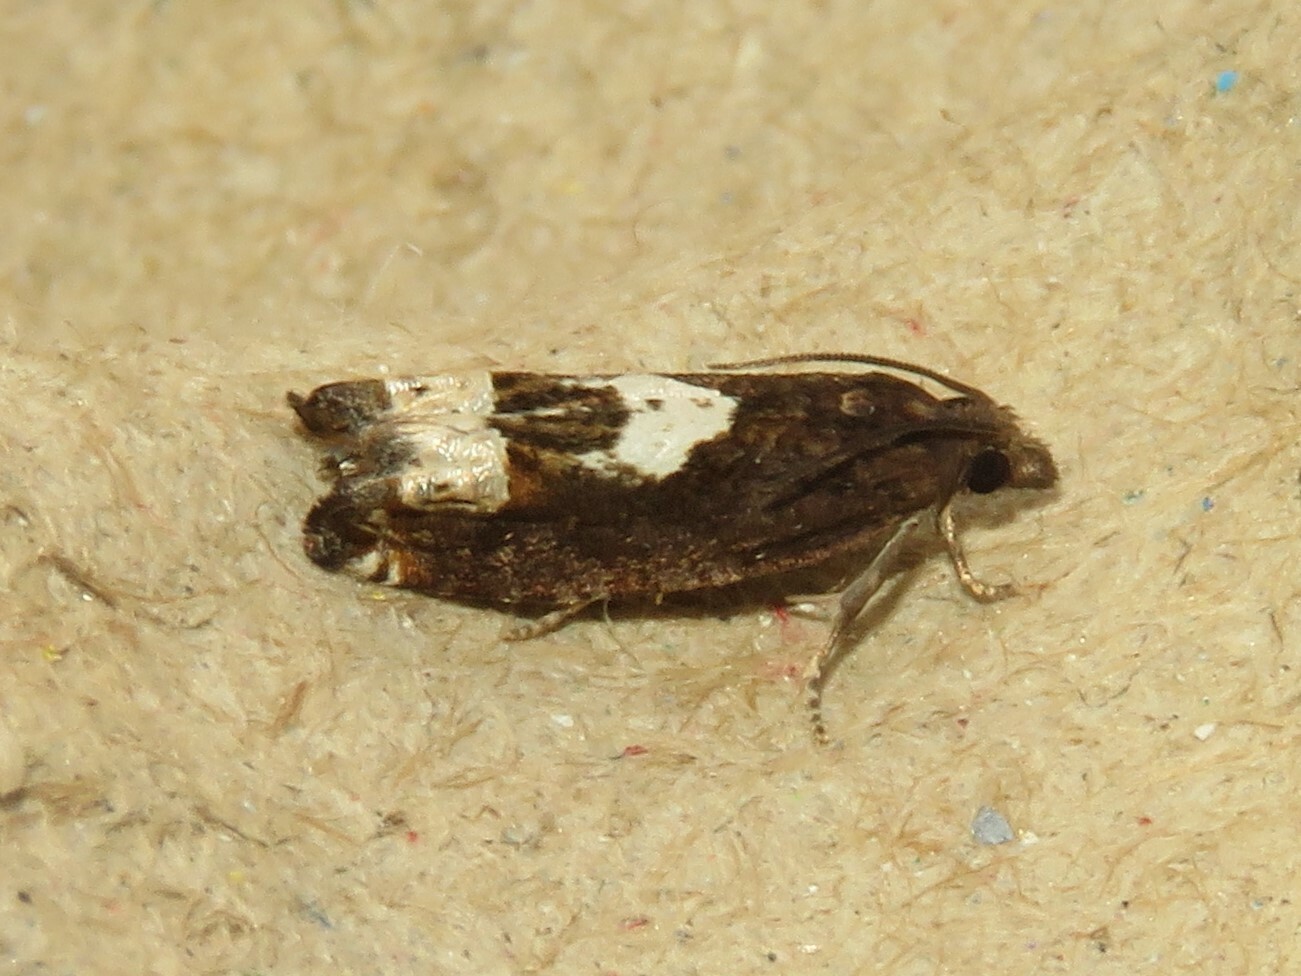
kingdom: Animalia
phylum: Arthropoda
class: Insecta
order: Lepidoptera
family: Tortricidae
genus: Eucosma
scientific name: Eucosma parmatana
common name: Aster eucosma moth
